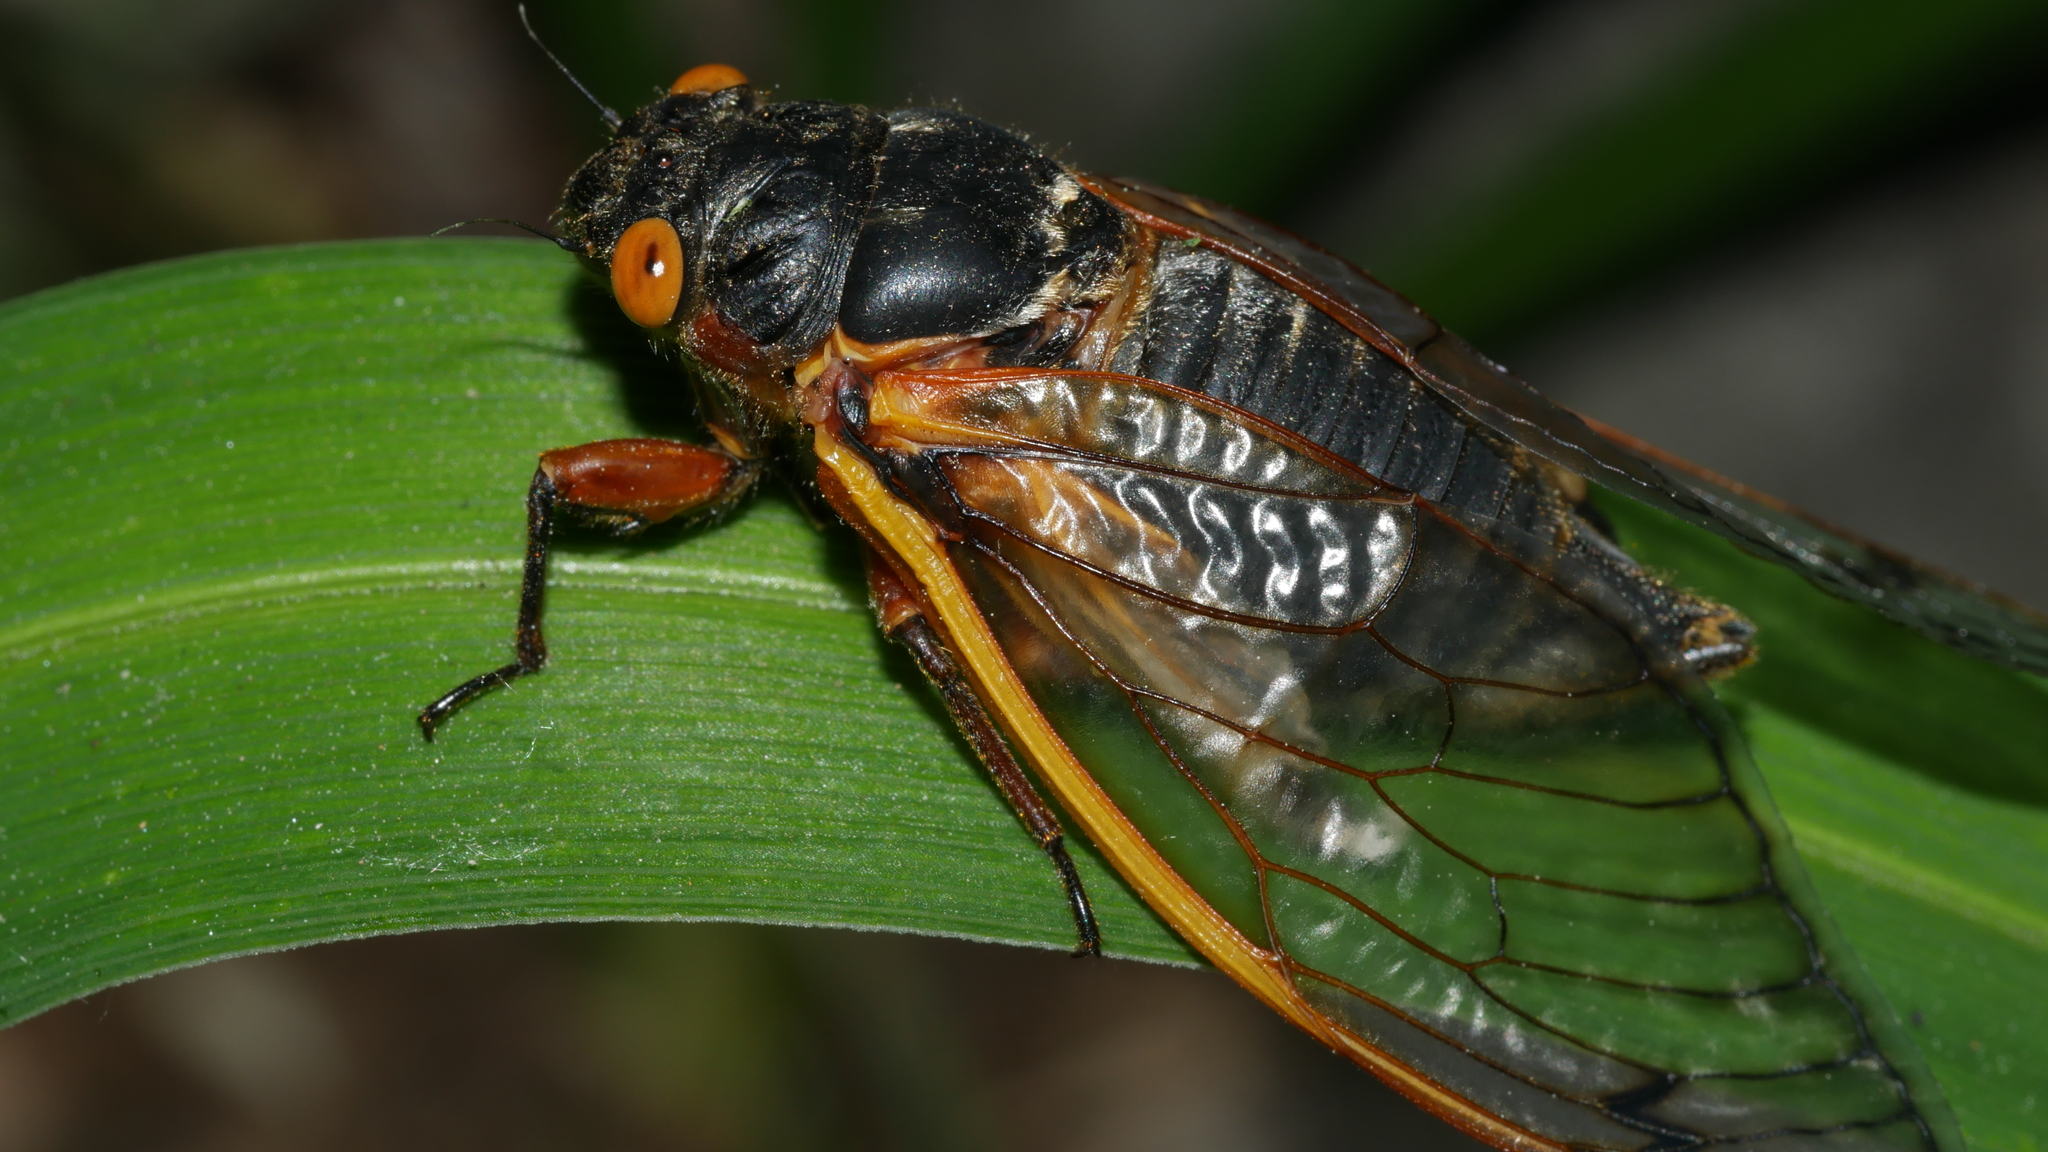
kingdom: Animalia
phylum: Arthropoda
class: Insecta
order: Hemiptera
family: Cicadidae
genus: Magicicada
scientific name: Magicicada septendecim
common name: Periodical cicada
